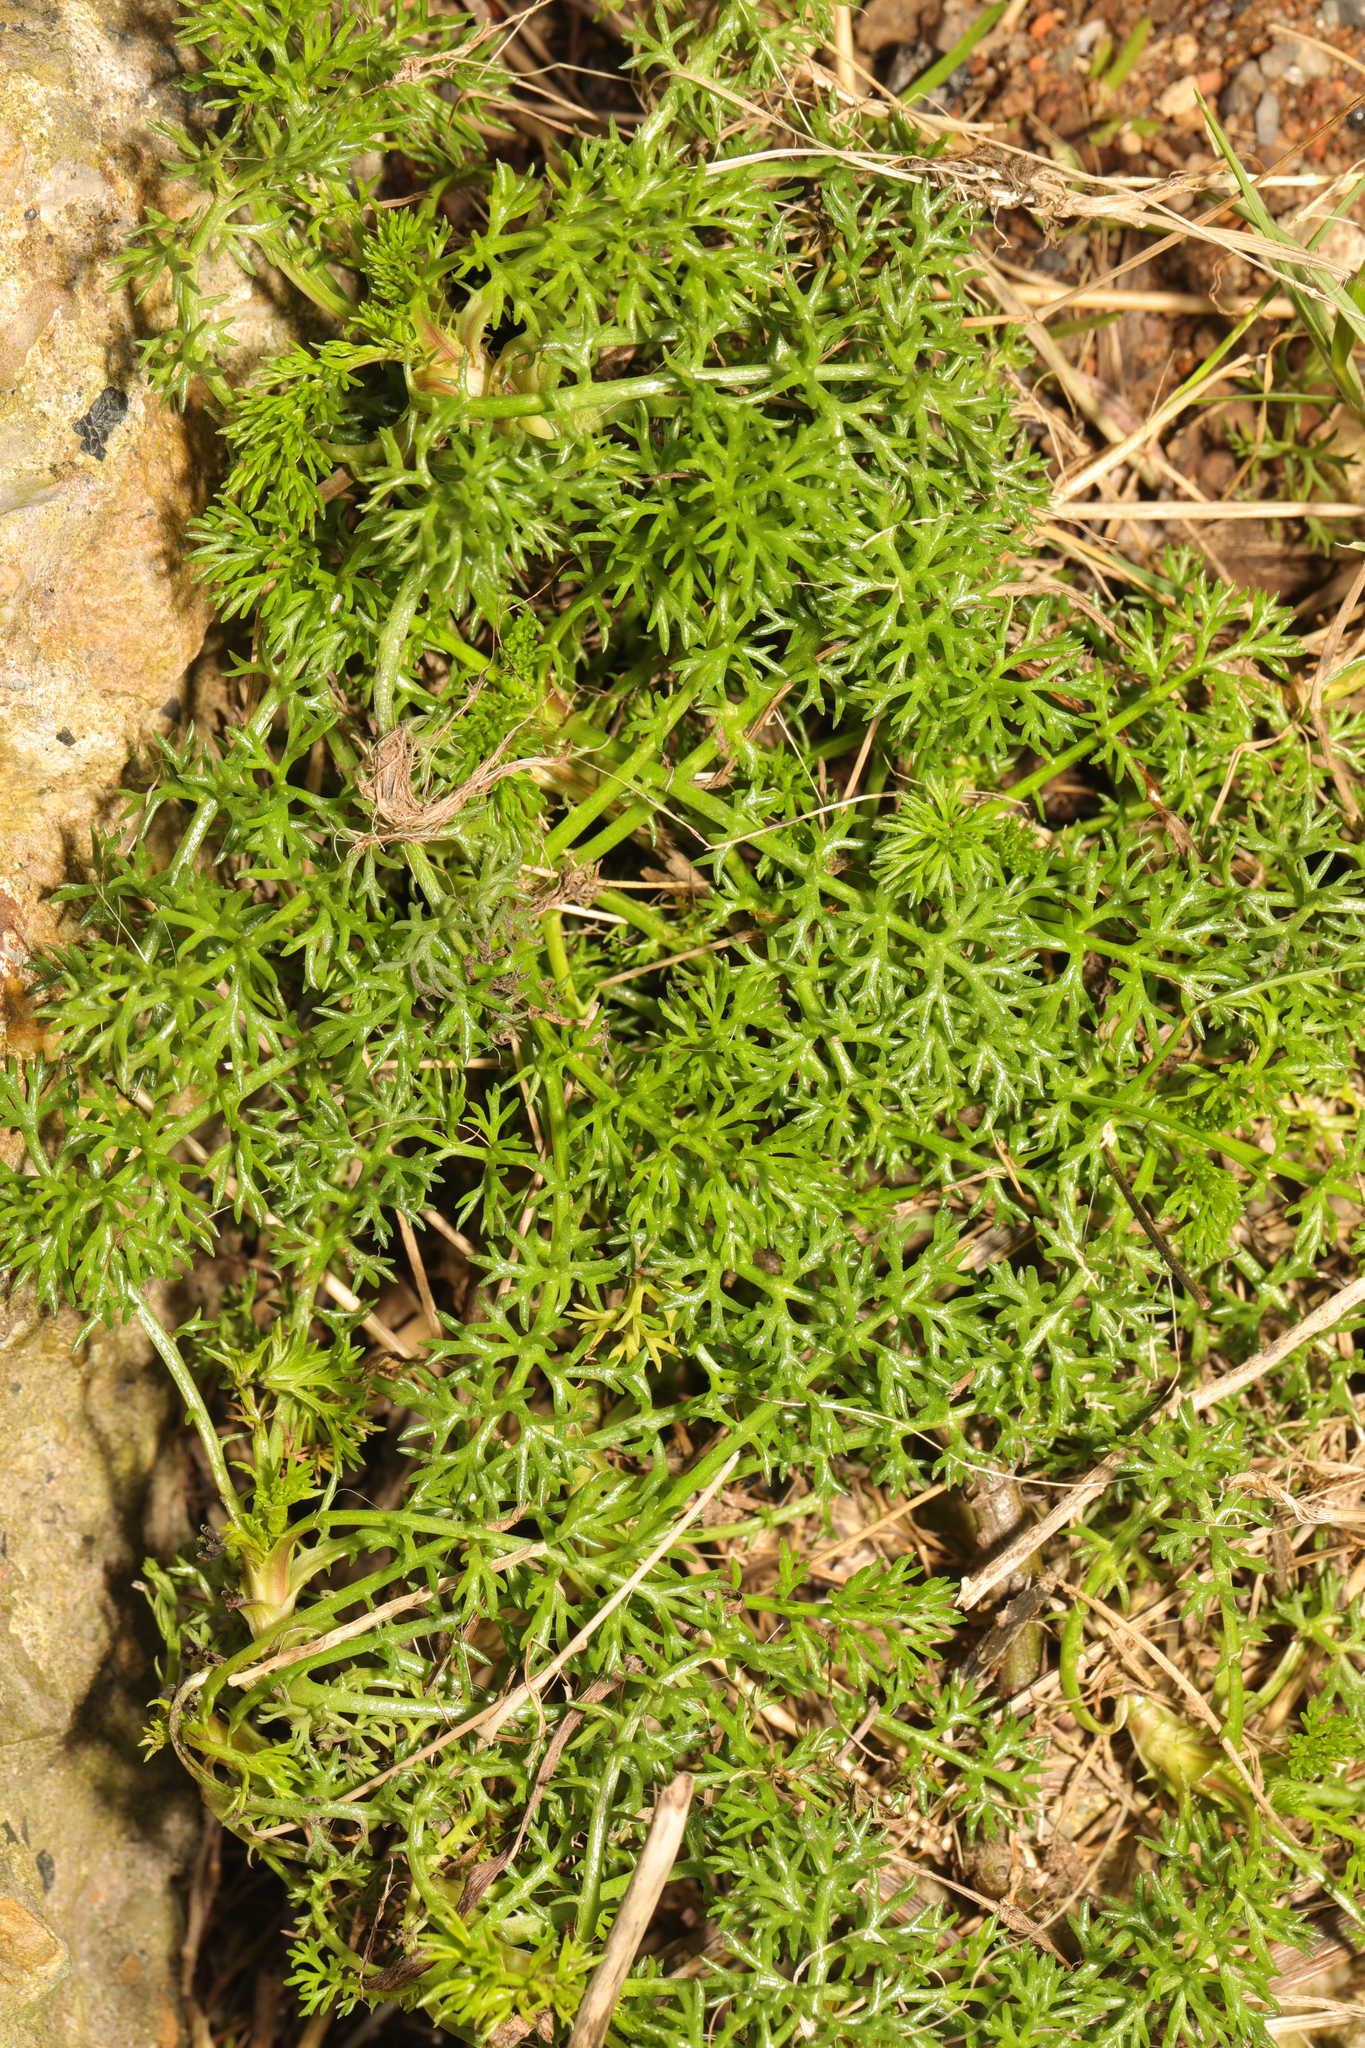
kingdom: Plantae
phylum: Tracheophyta
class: Magnoliopsida
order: Asterales
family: Asteraceae
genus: Tripleurospermum
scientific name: Tripleurospermum maritimum
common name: Sea mayweed
